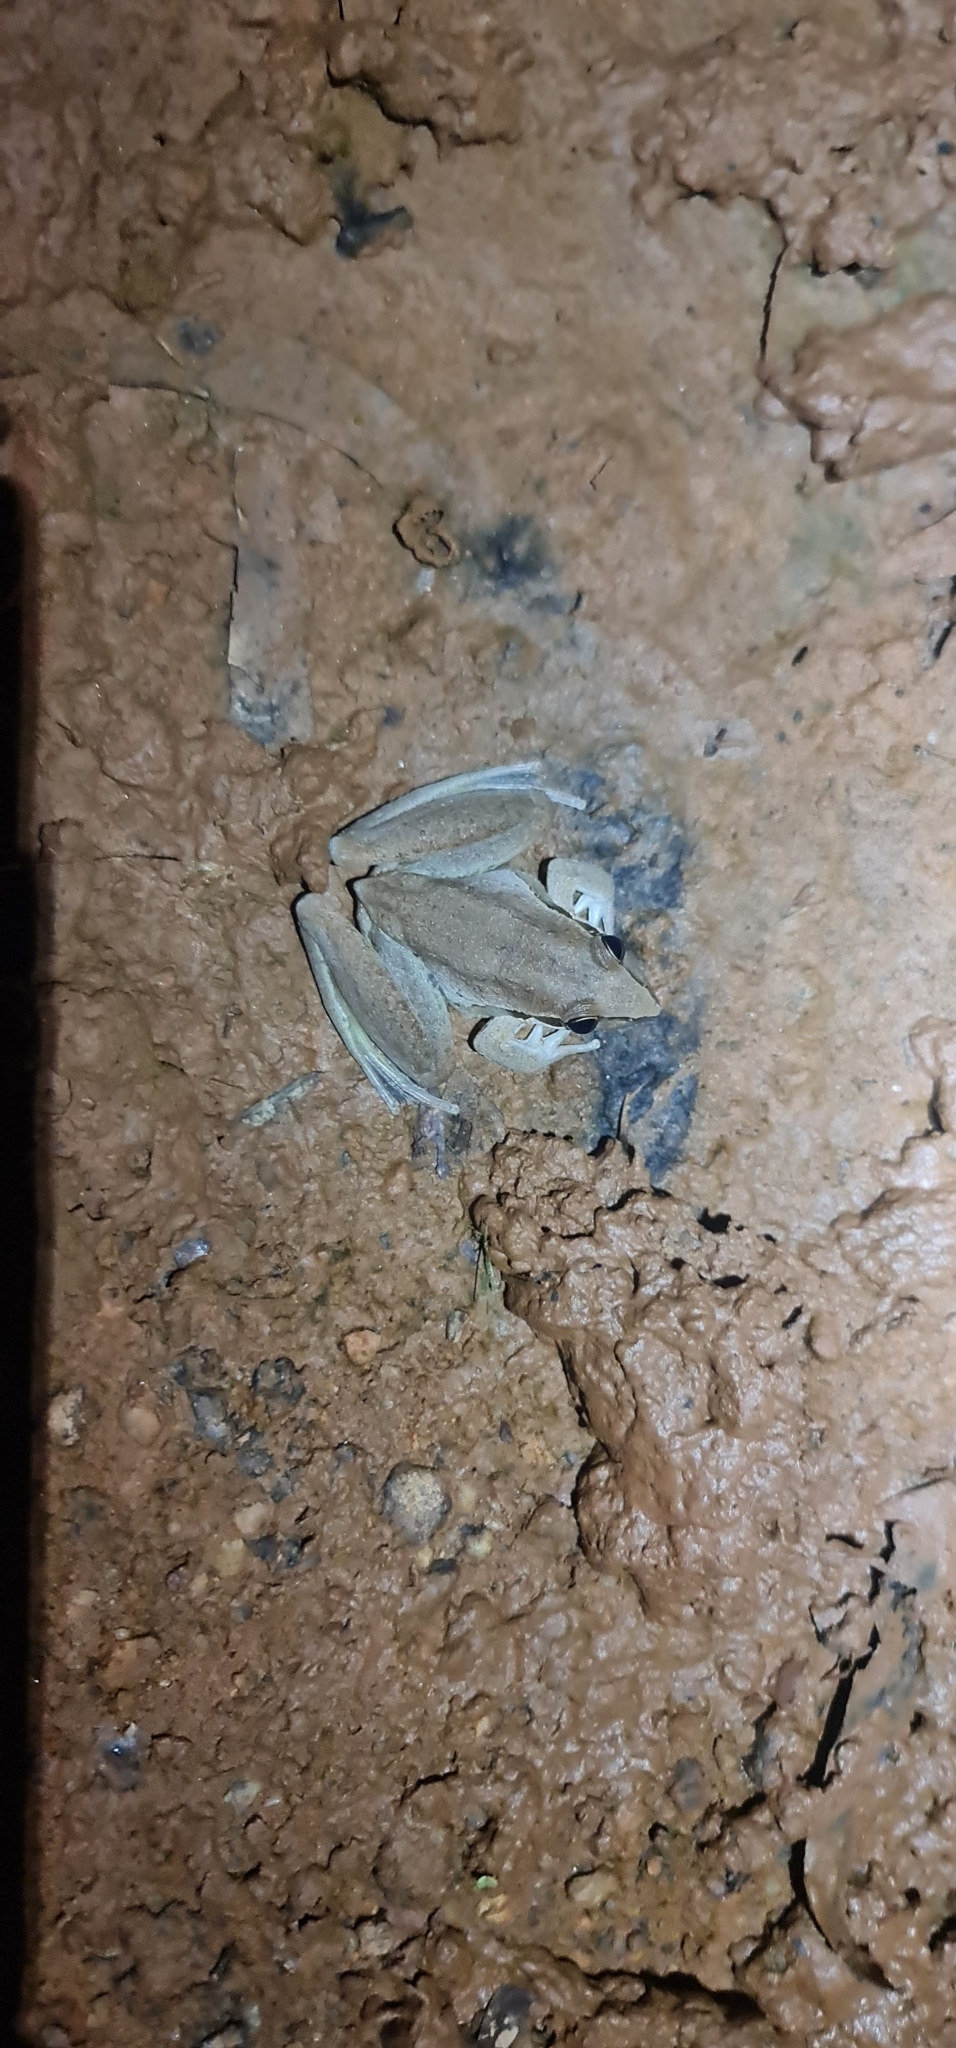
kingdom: Animalia
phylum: Chordata
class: Amphibia
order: Anura
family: Pelodryadidae
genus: Litoria
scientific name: Litoria watjulumensis
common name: Wotjulum frog
